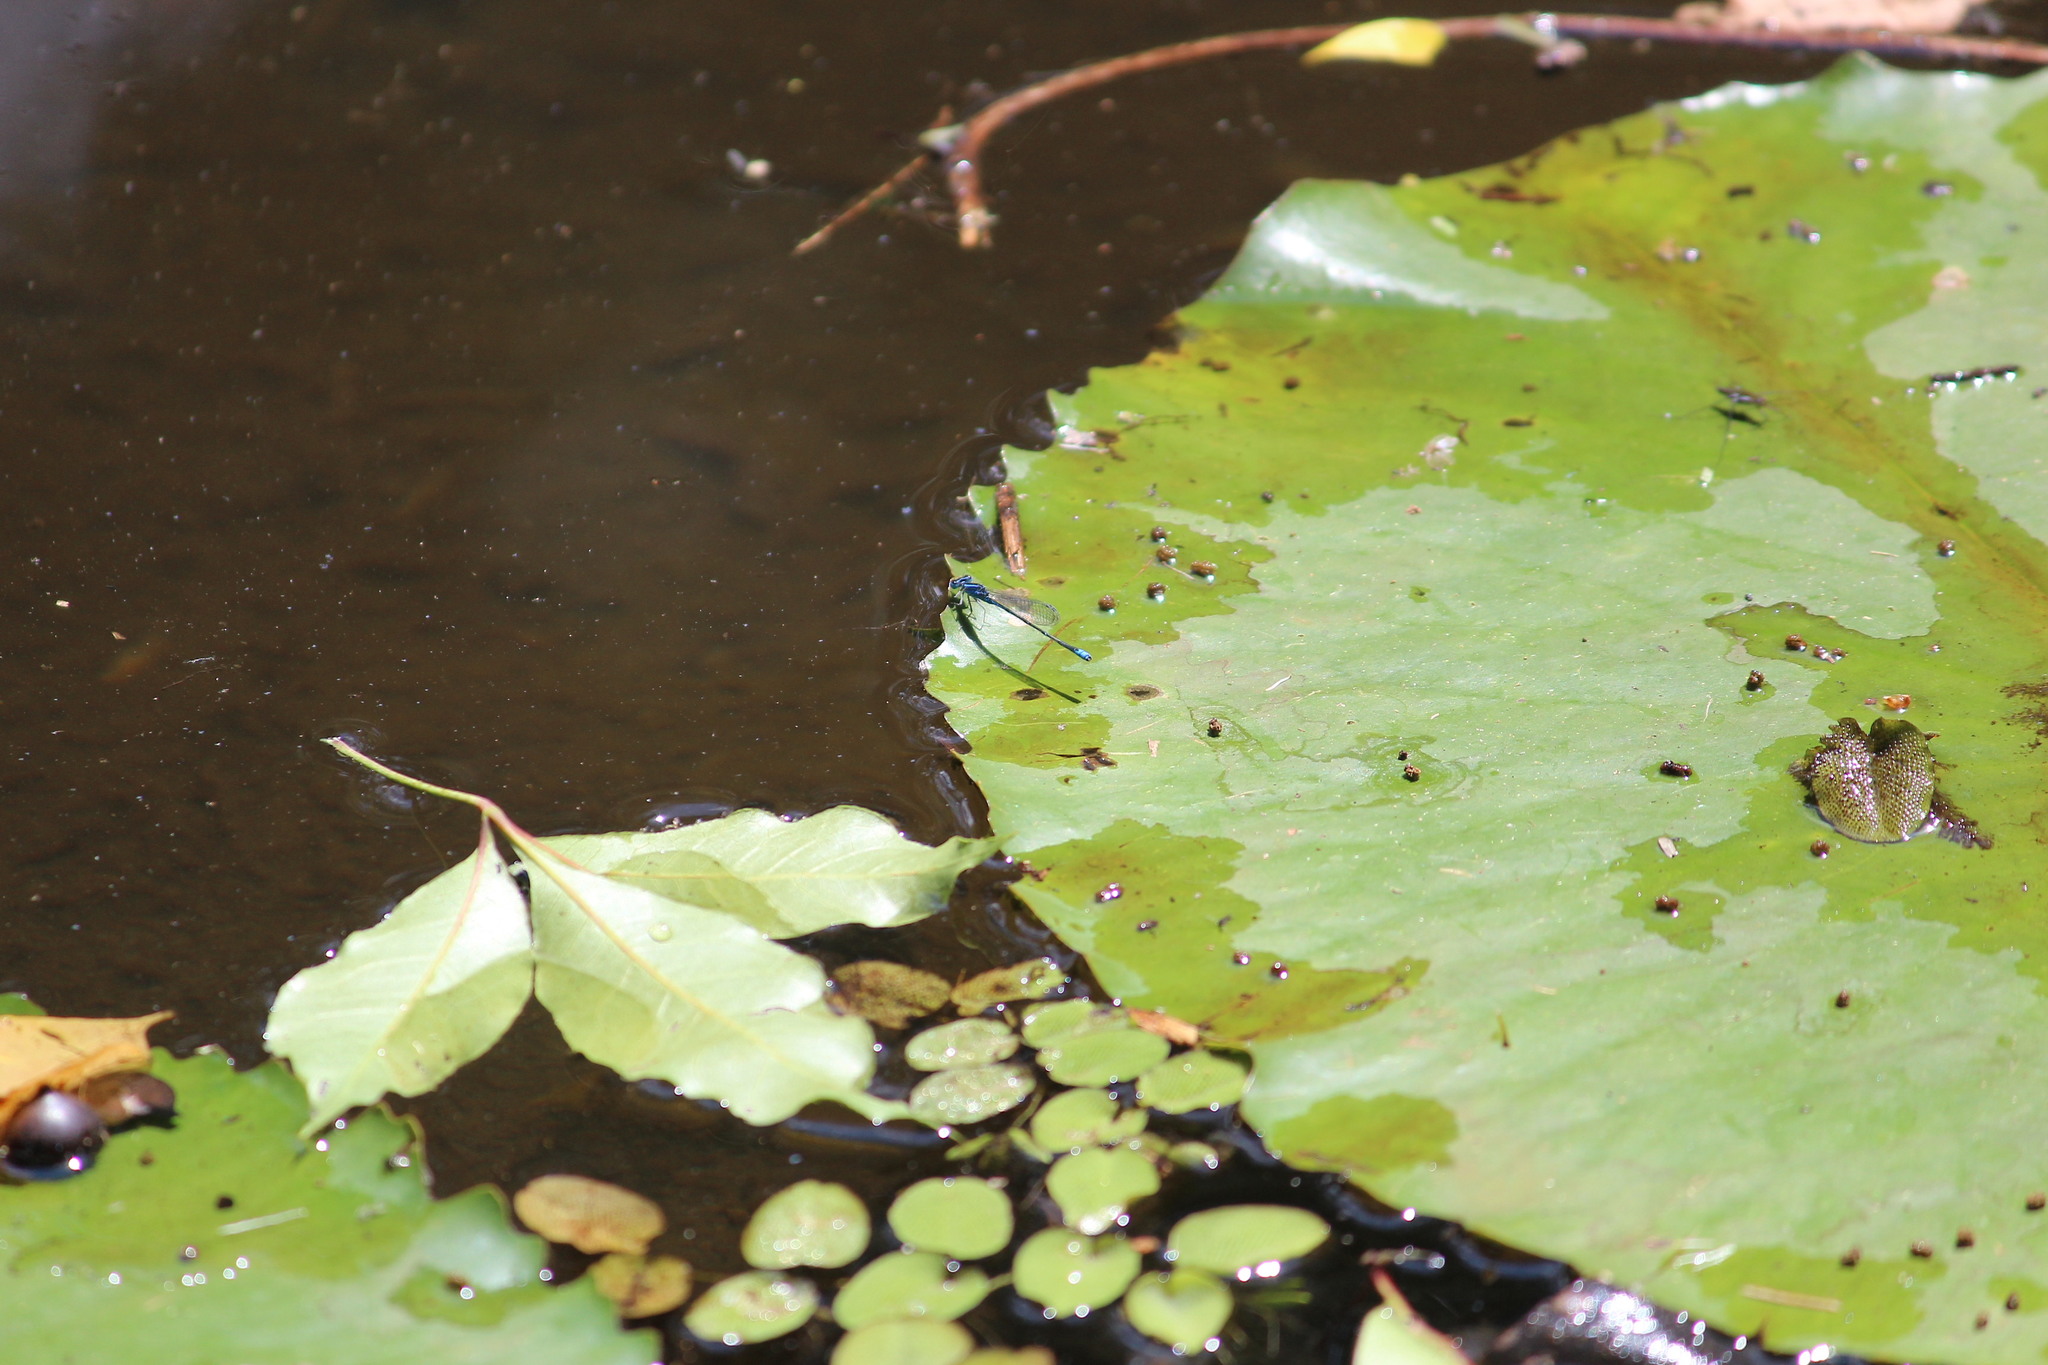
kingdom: Animalia
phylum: Arthropoda
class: Insecta
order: Odonata
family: Coenagrionidae
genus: Azuragrion
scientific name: Azuragrion nigridorsum
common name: Sailing azuret
